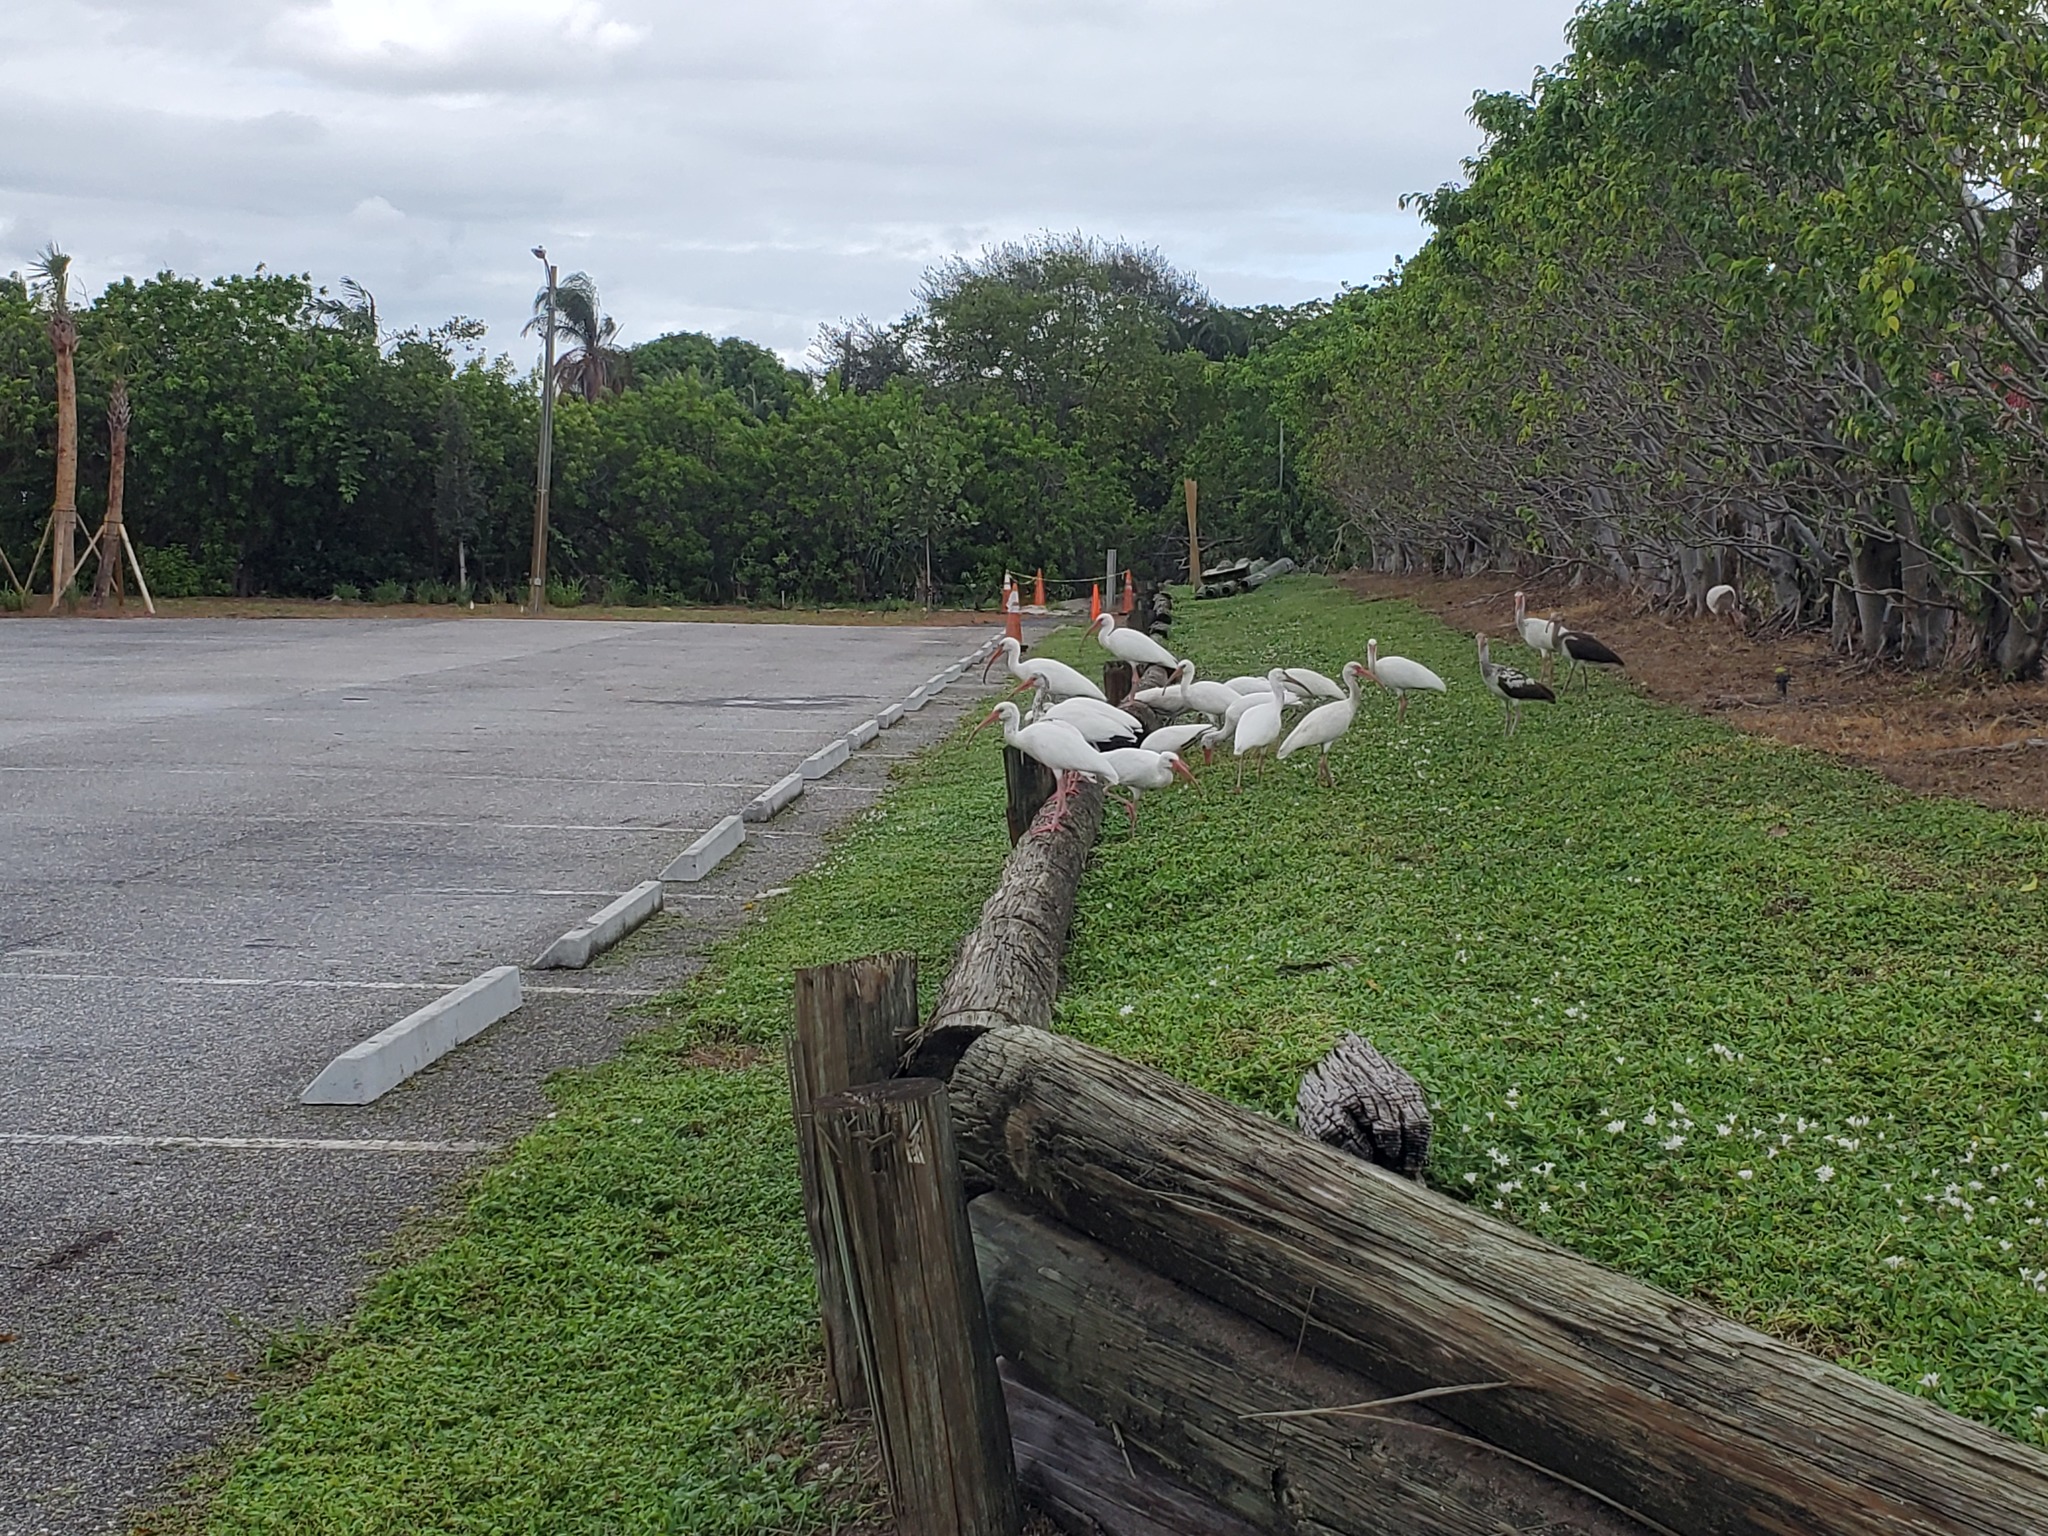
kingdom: Animalia
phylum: Chordata
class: Aves
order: Pelecaniformes
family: Threskiornithidae
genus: Eudocimus
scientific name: Eudocimus albus
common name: White ibis
